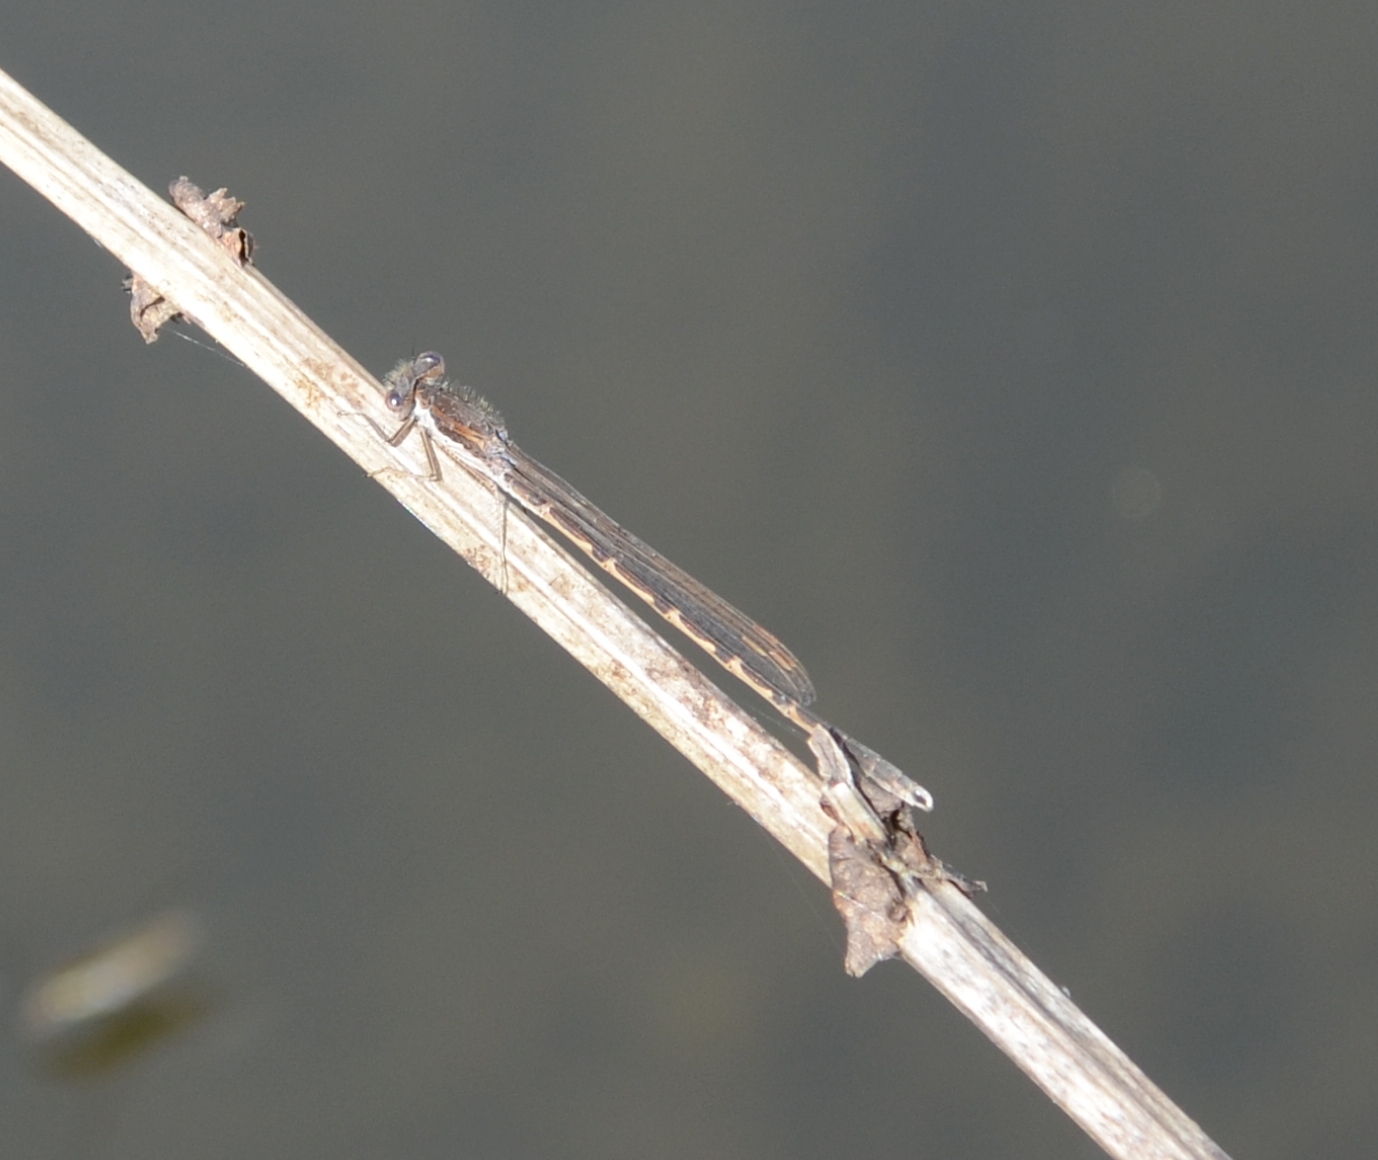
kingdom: Animalia
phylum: Arthropoda
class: Insecta
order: Odonata
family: Lestidae
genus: Sympecma
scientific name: Sympecma fusca
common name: Common winter damsel
